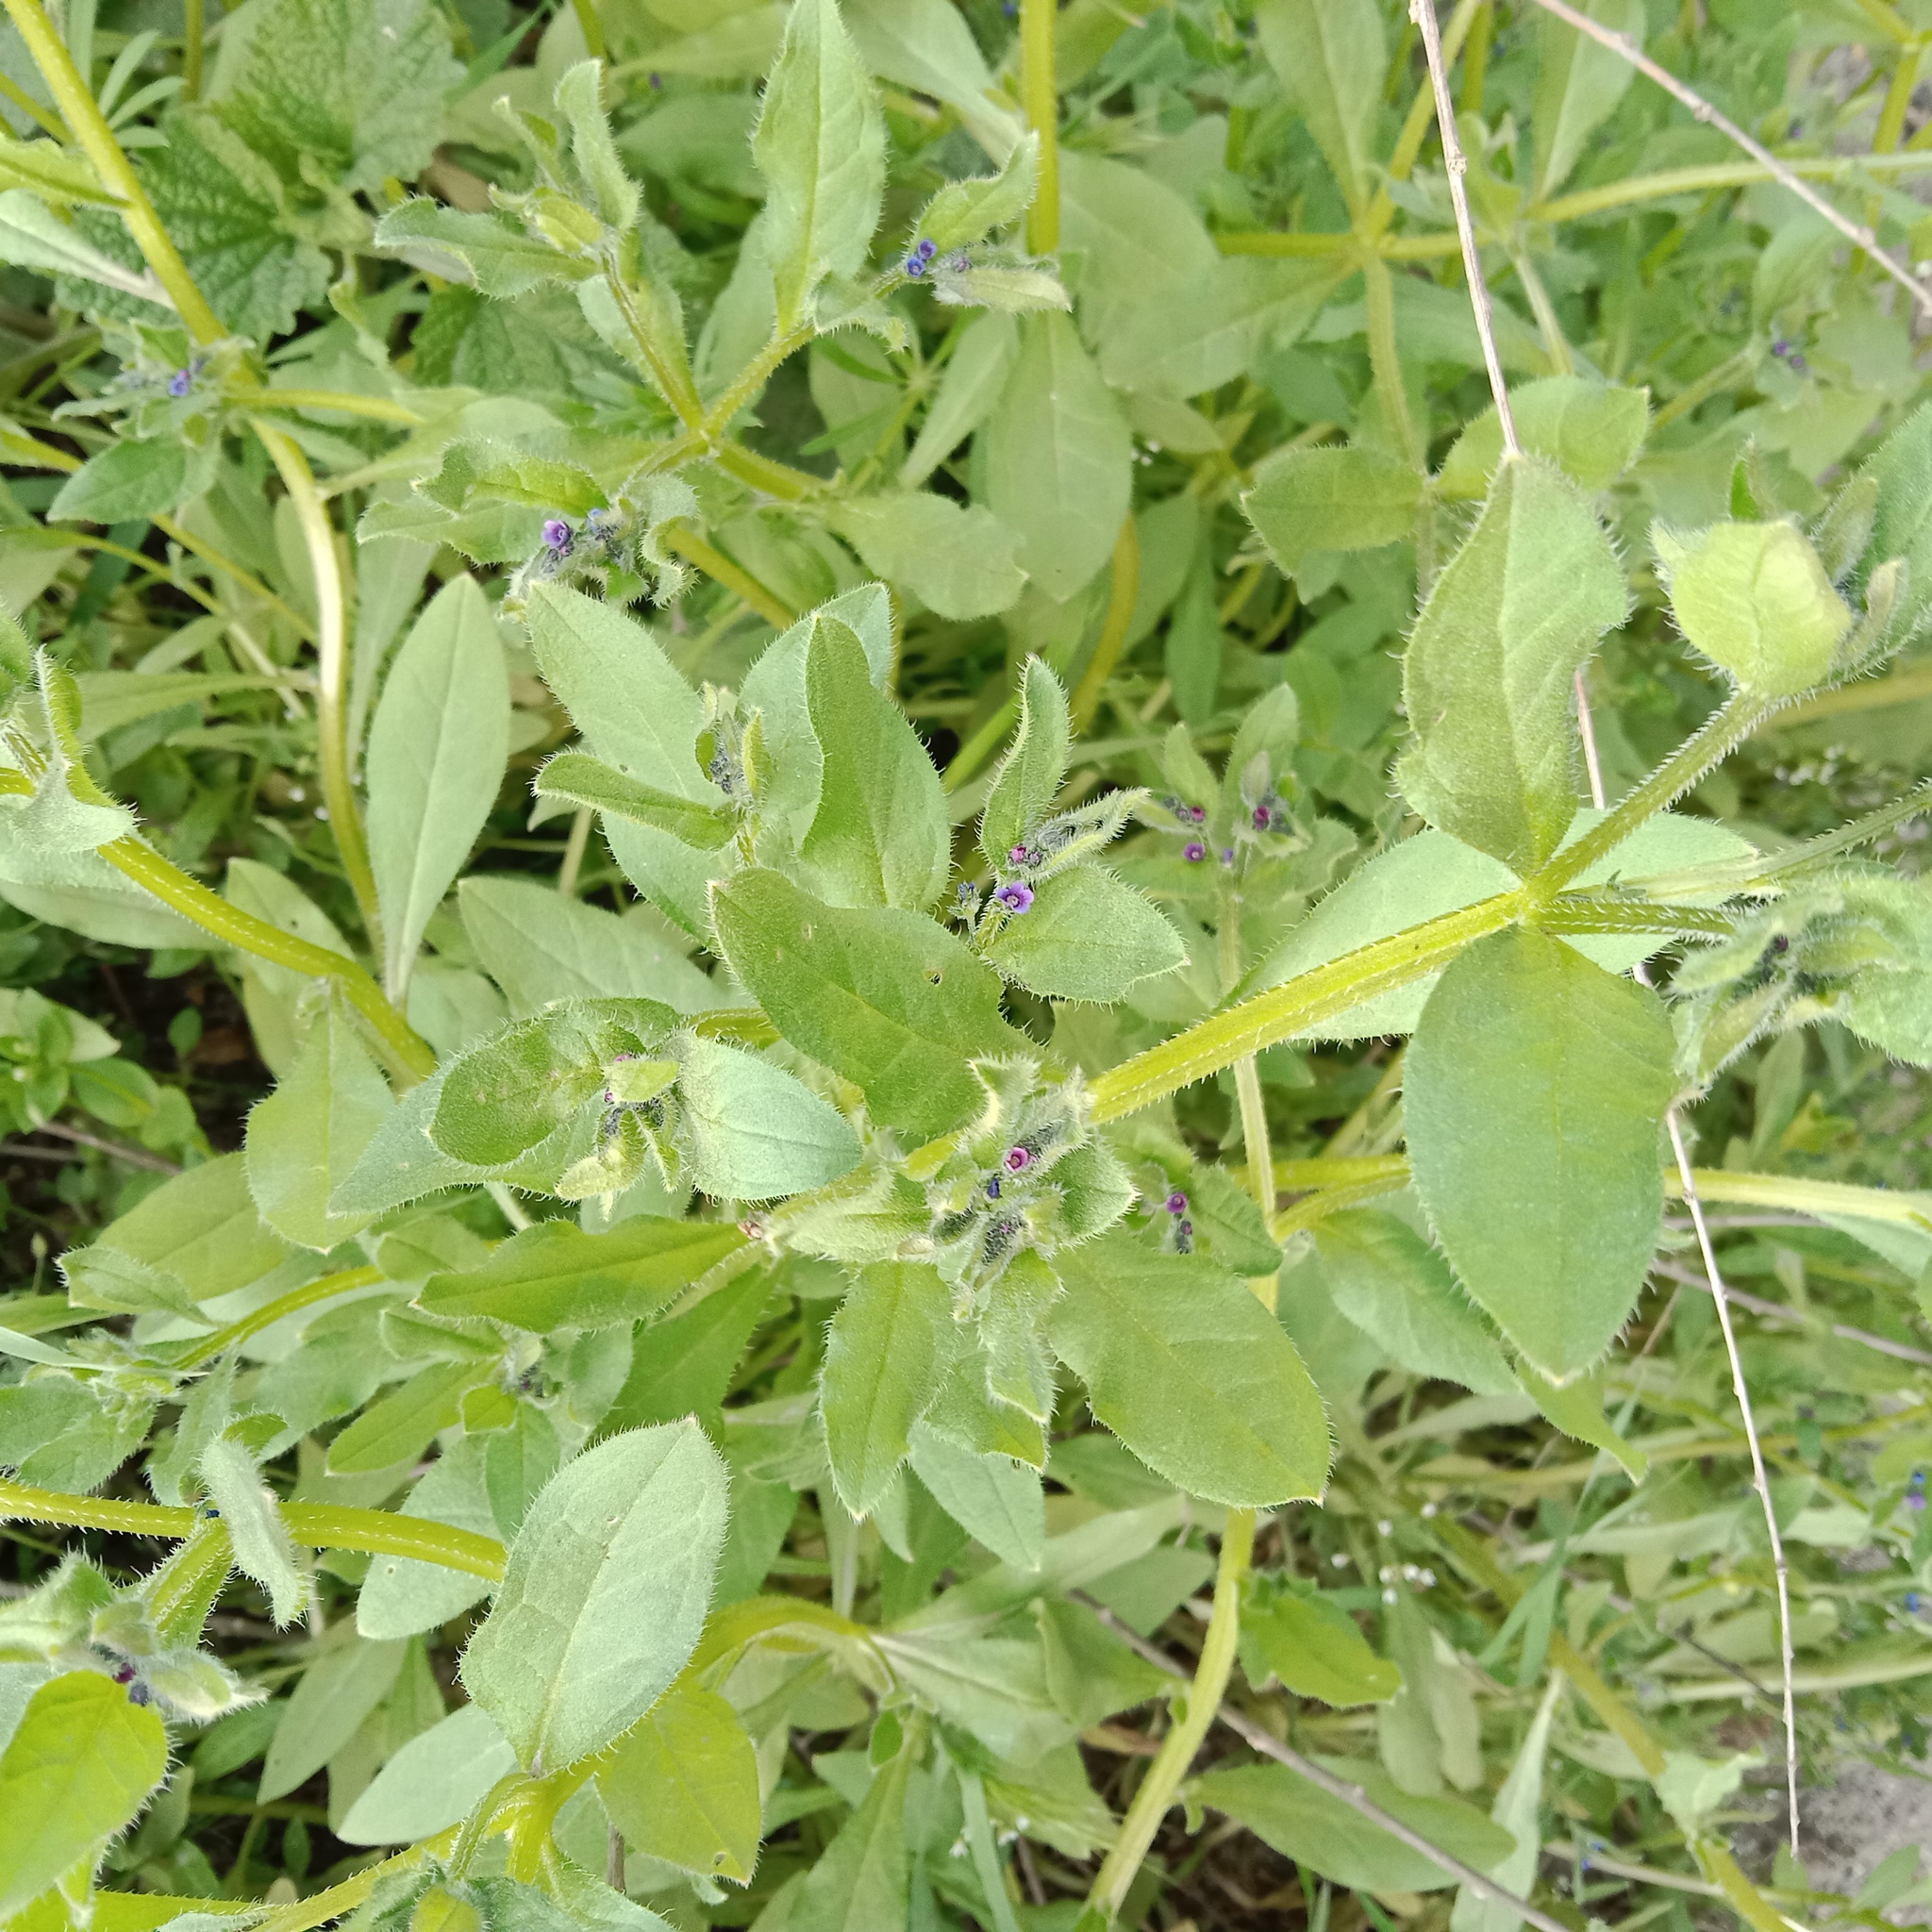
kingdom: Plantae
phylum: Tracheophyta
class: Magnoliopsida
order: Boraginales
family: Boraginaceae
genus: Asperugo
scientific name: Asperugo procumbens
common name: Madwort
